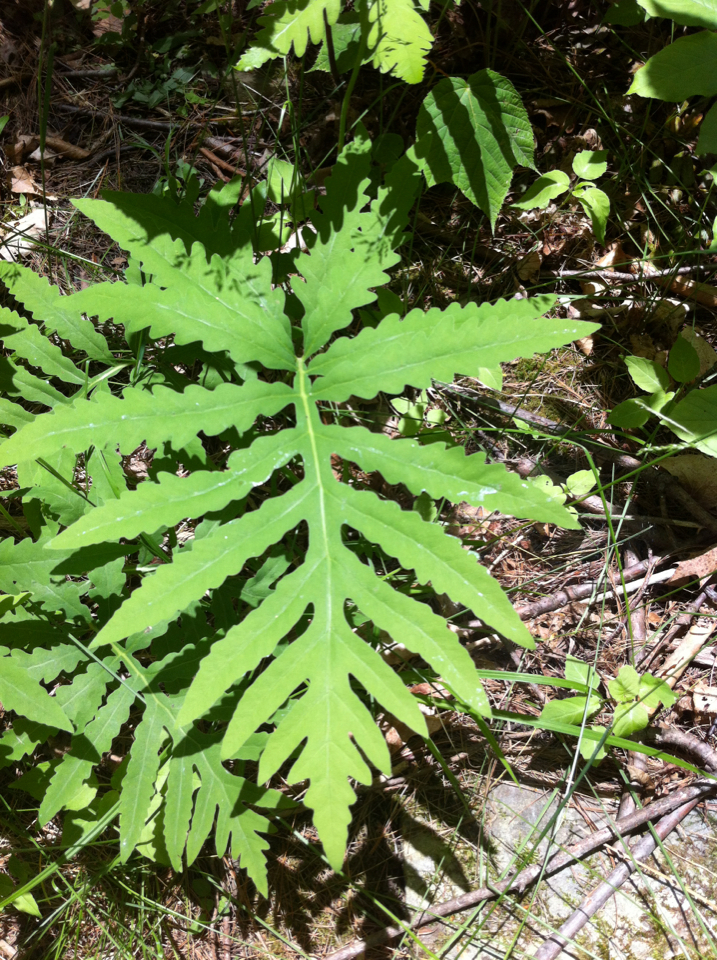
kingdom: Plantae
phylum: Tracheophyta
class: Polypodiopsida
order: Polypodiales
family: Onocleaceae
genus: Onoclea
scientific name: Onoclea sensibilis
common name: Sensitive fern
